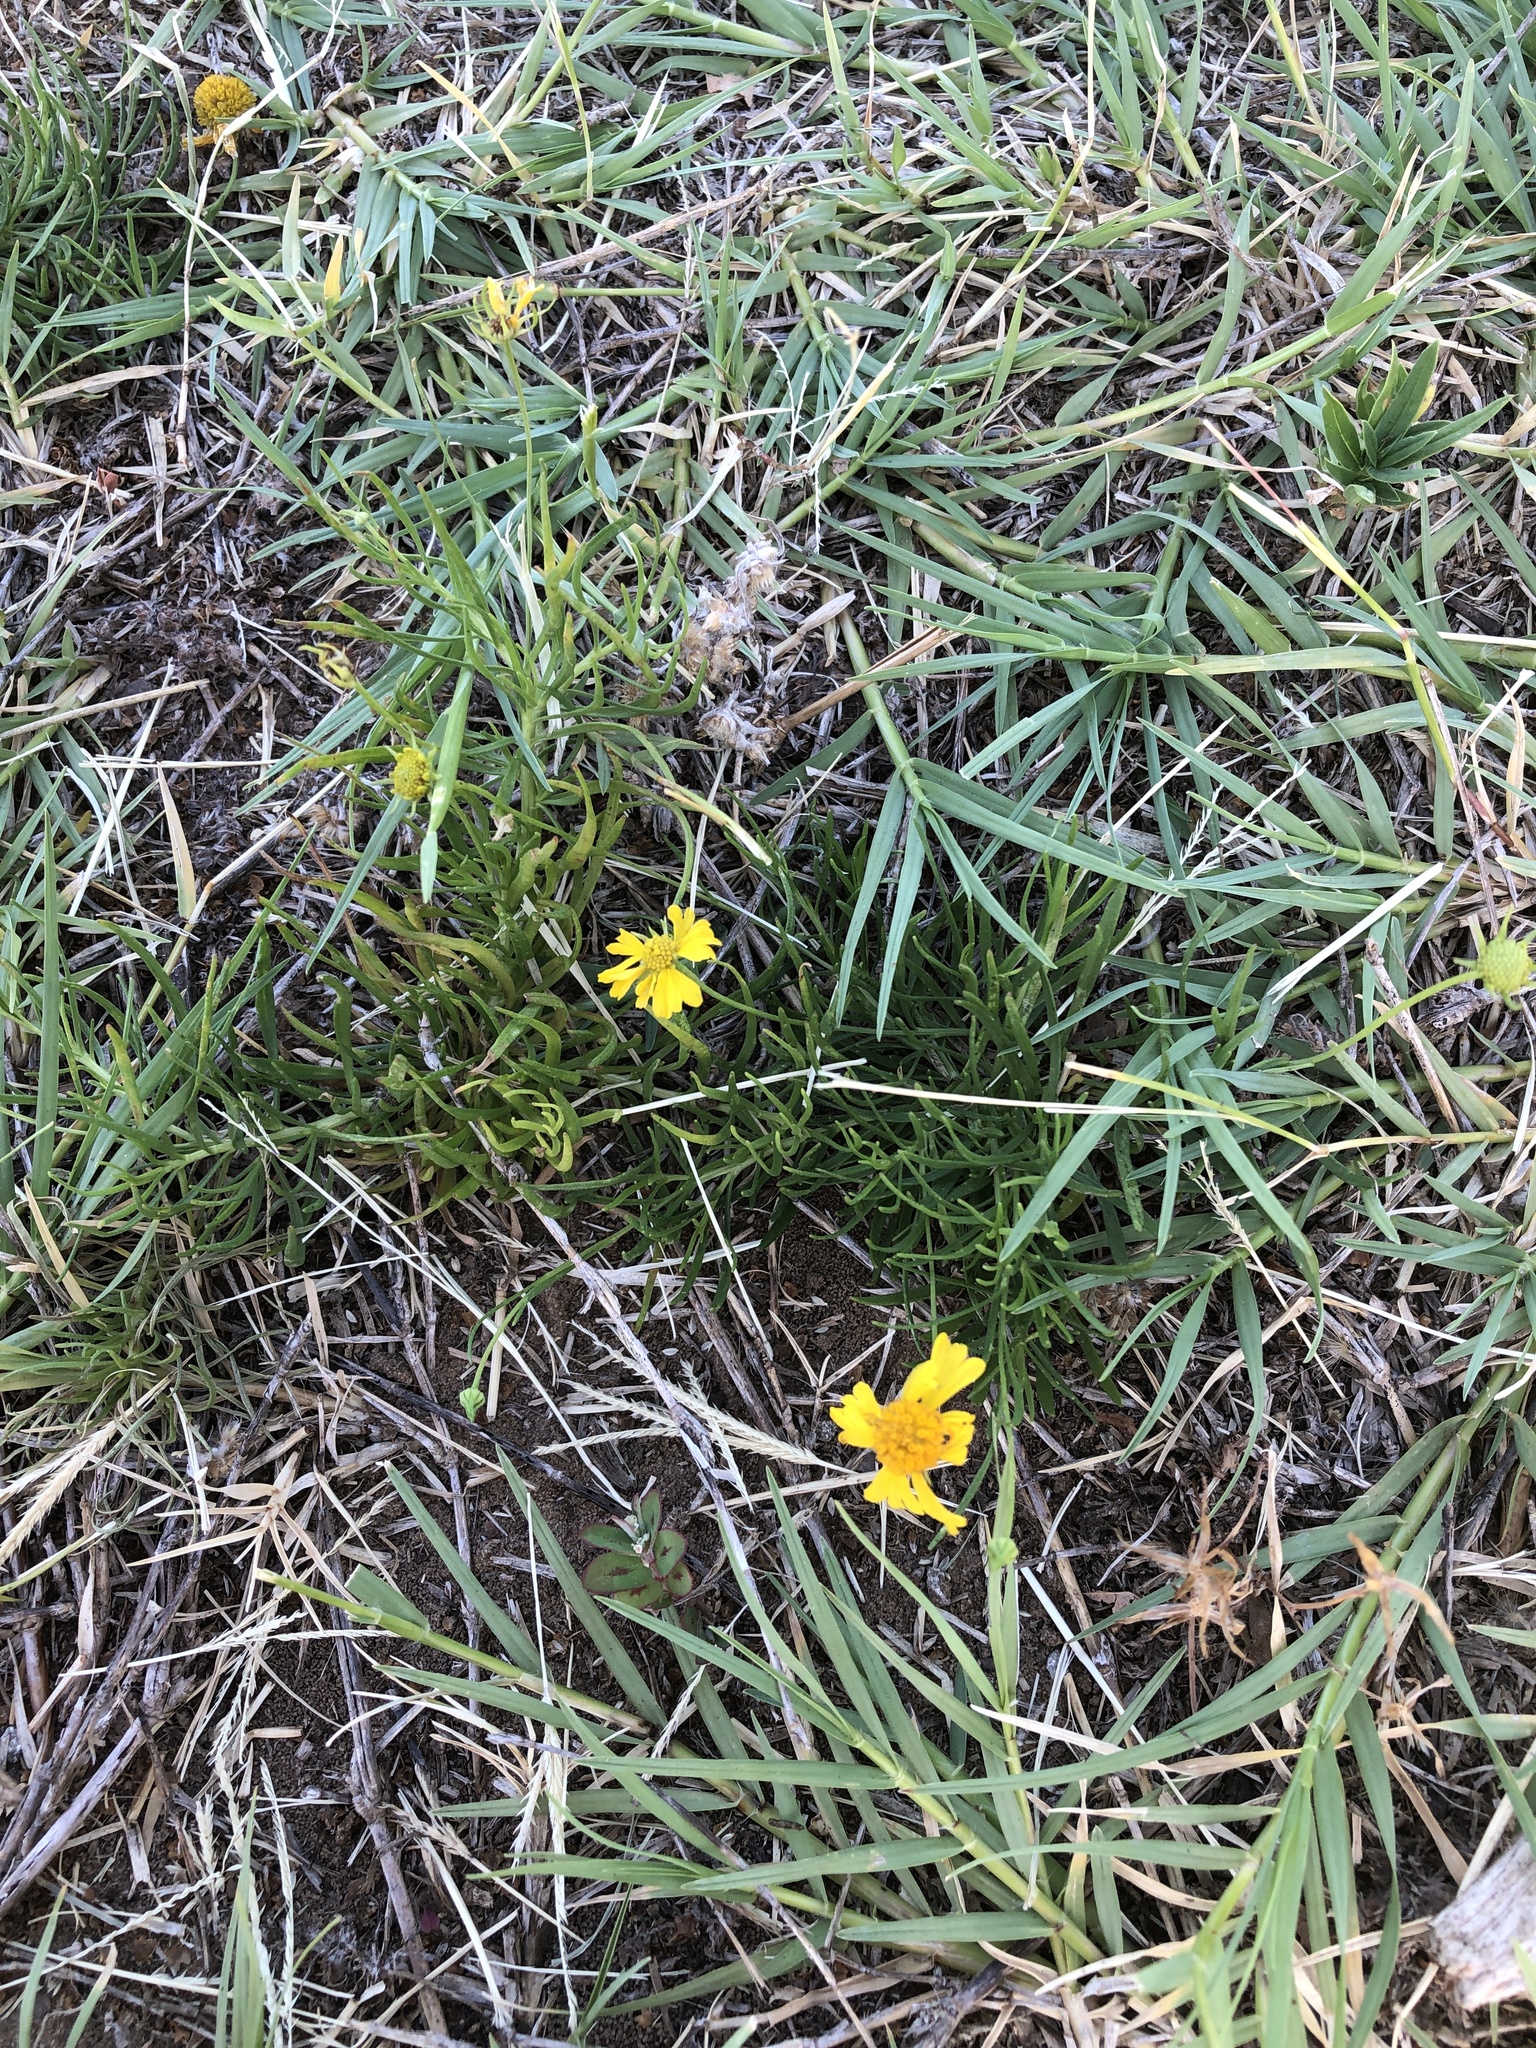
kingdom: Plantae
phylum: Tracheophyta
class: Magnoliopsida
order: Asterales
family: Asteraceae
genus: Helenium
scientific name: Helenium amarum
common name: Bitter sneezeweed
